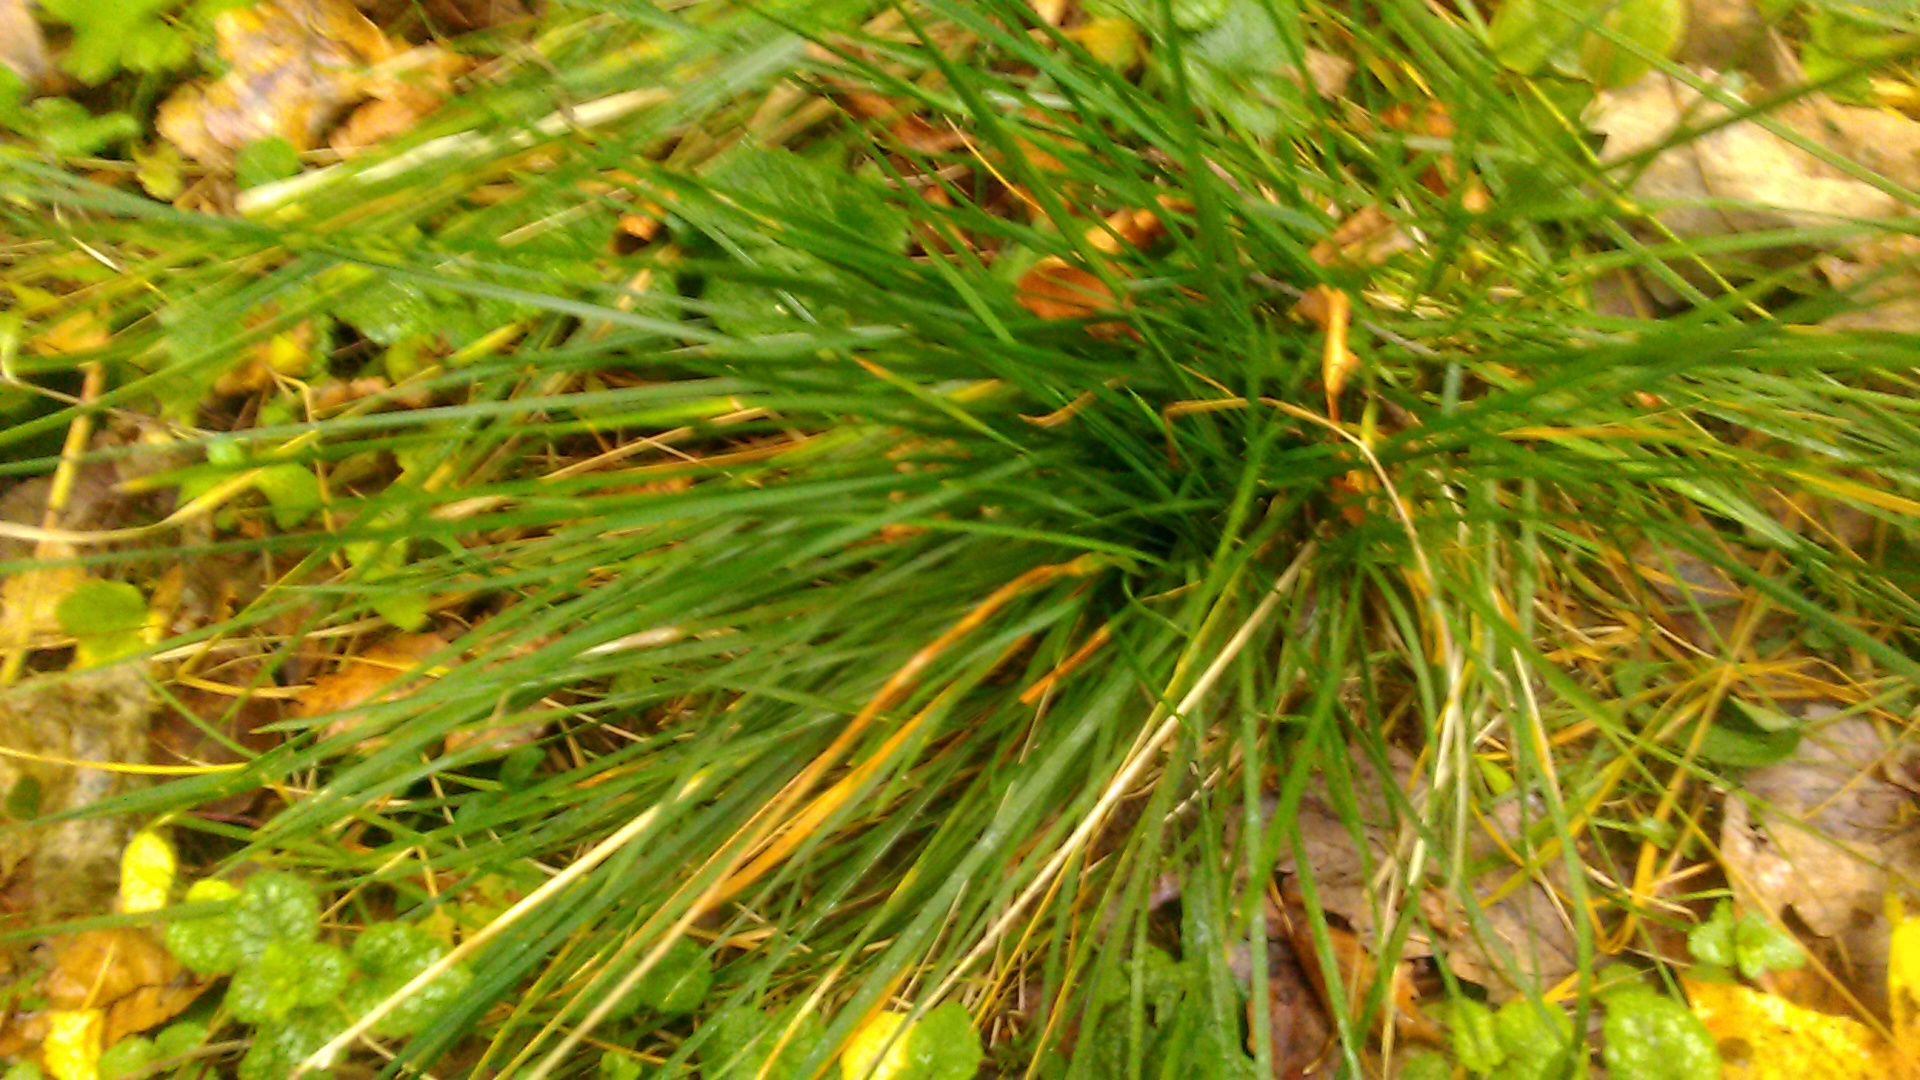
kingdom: Plantae
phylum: Tracheophyta
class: Liliopsida
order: Poales
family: Poaceae
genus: Deschampsia
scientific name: Deschampsia cespitosa
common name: Tufted hair-grass
